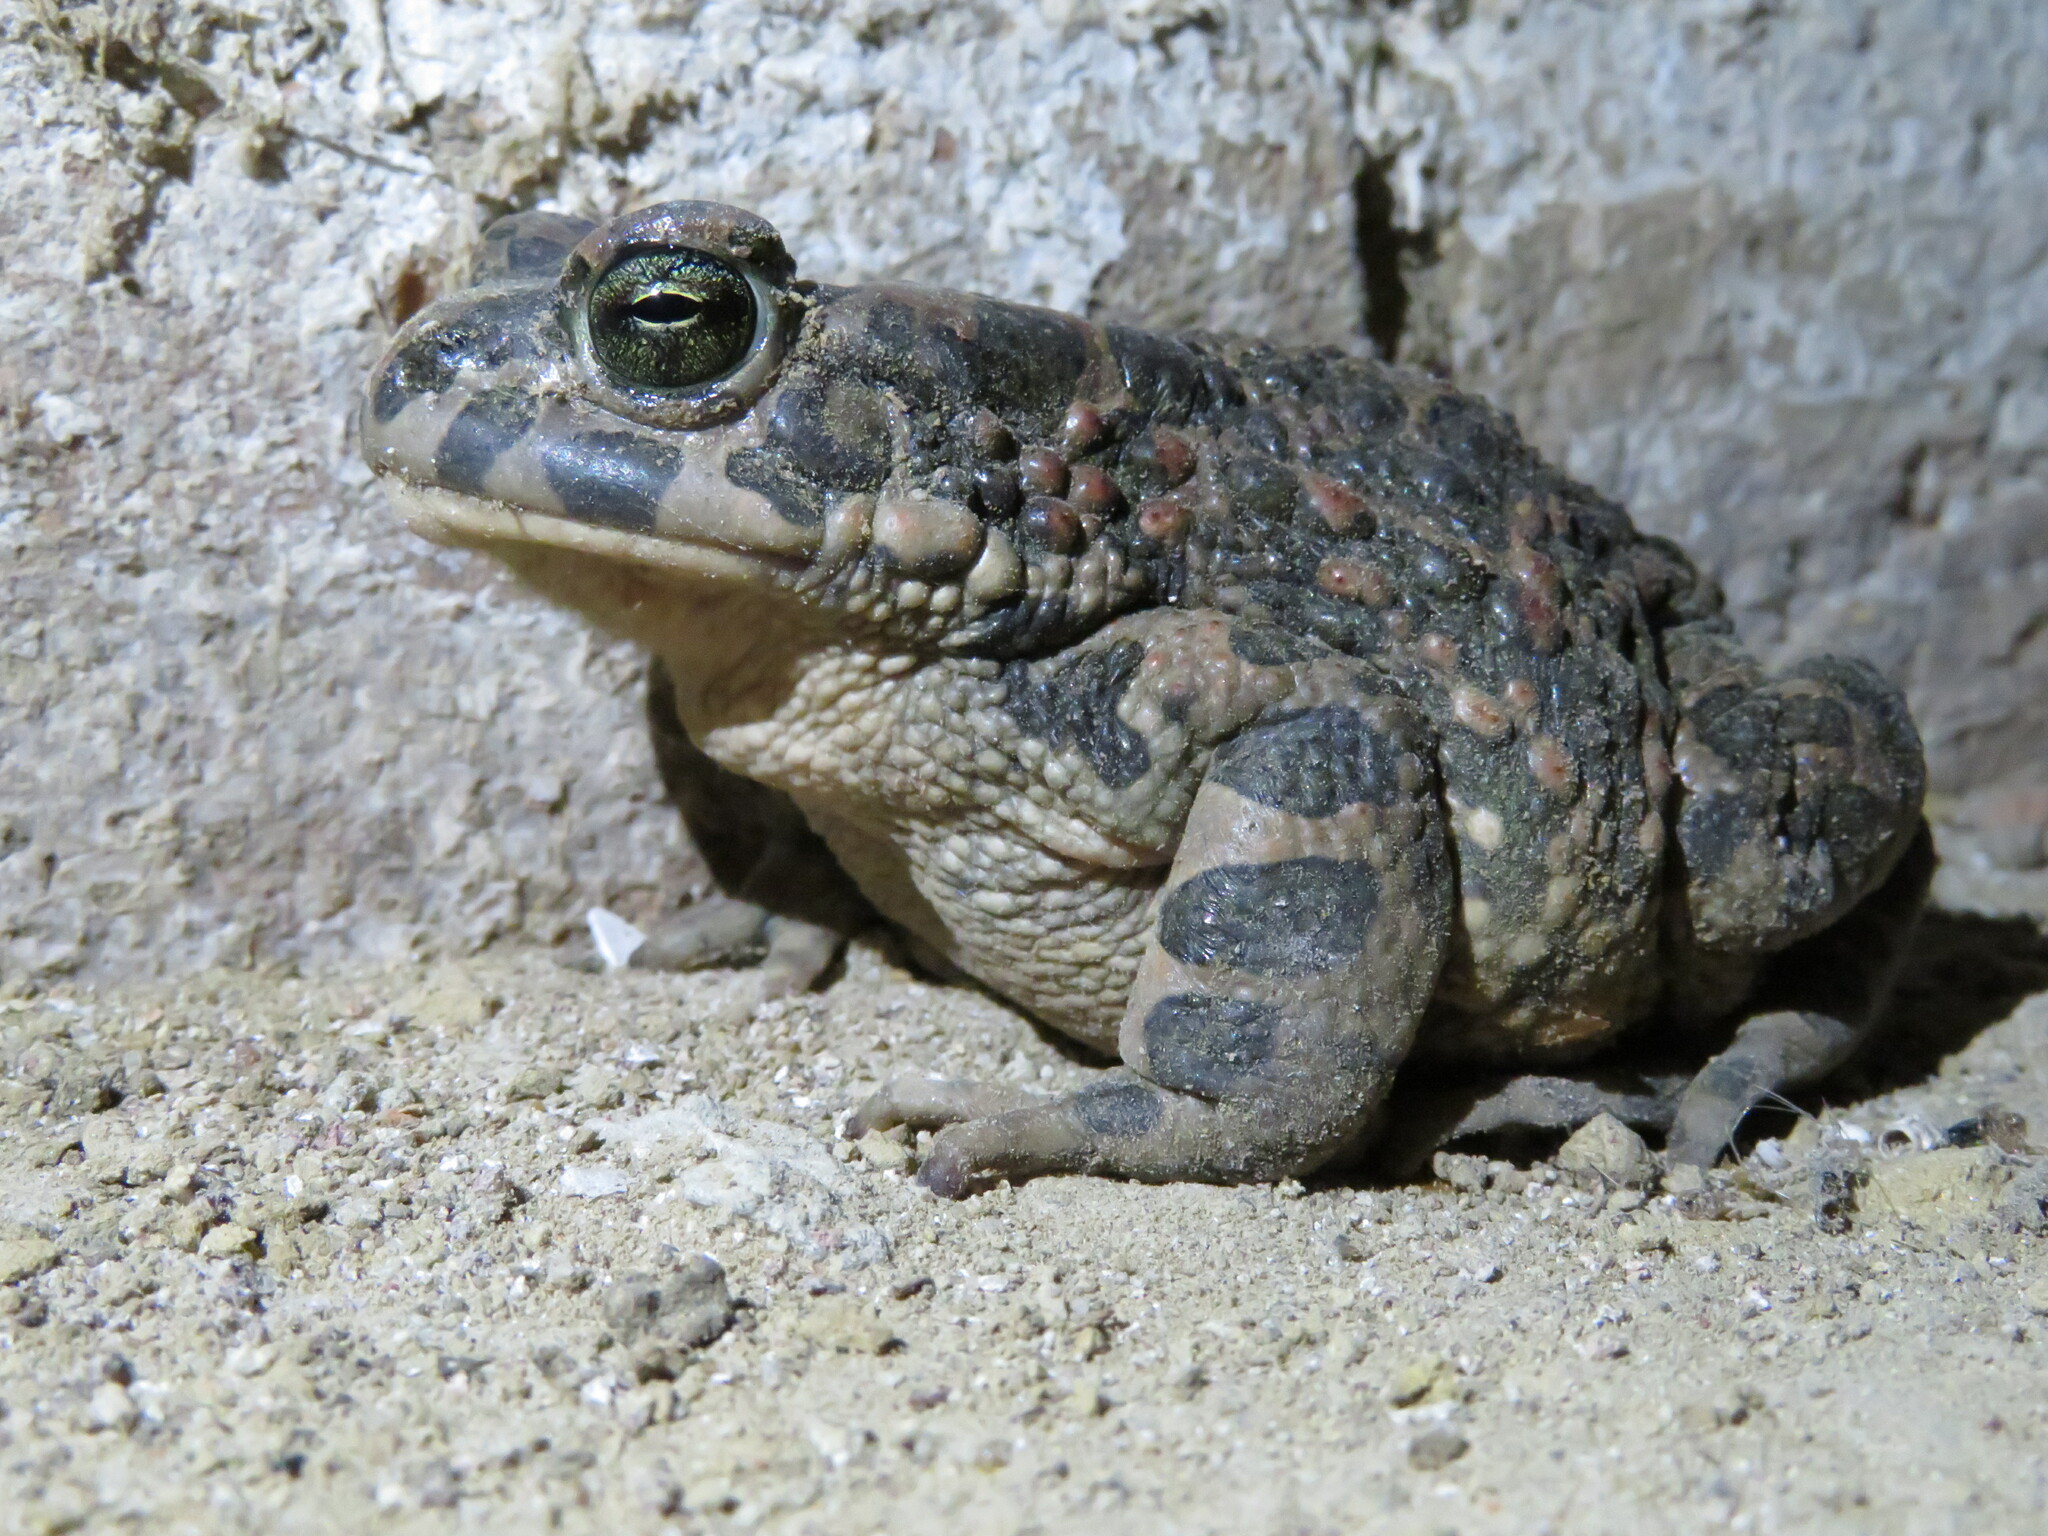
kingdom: Animalia
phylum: Chordata
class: Amphibia
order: Anura
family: Bufonidae
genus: Bufotes
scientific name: Bufotes viridis
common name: European green toad
